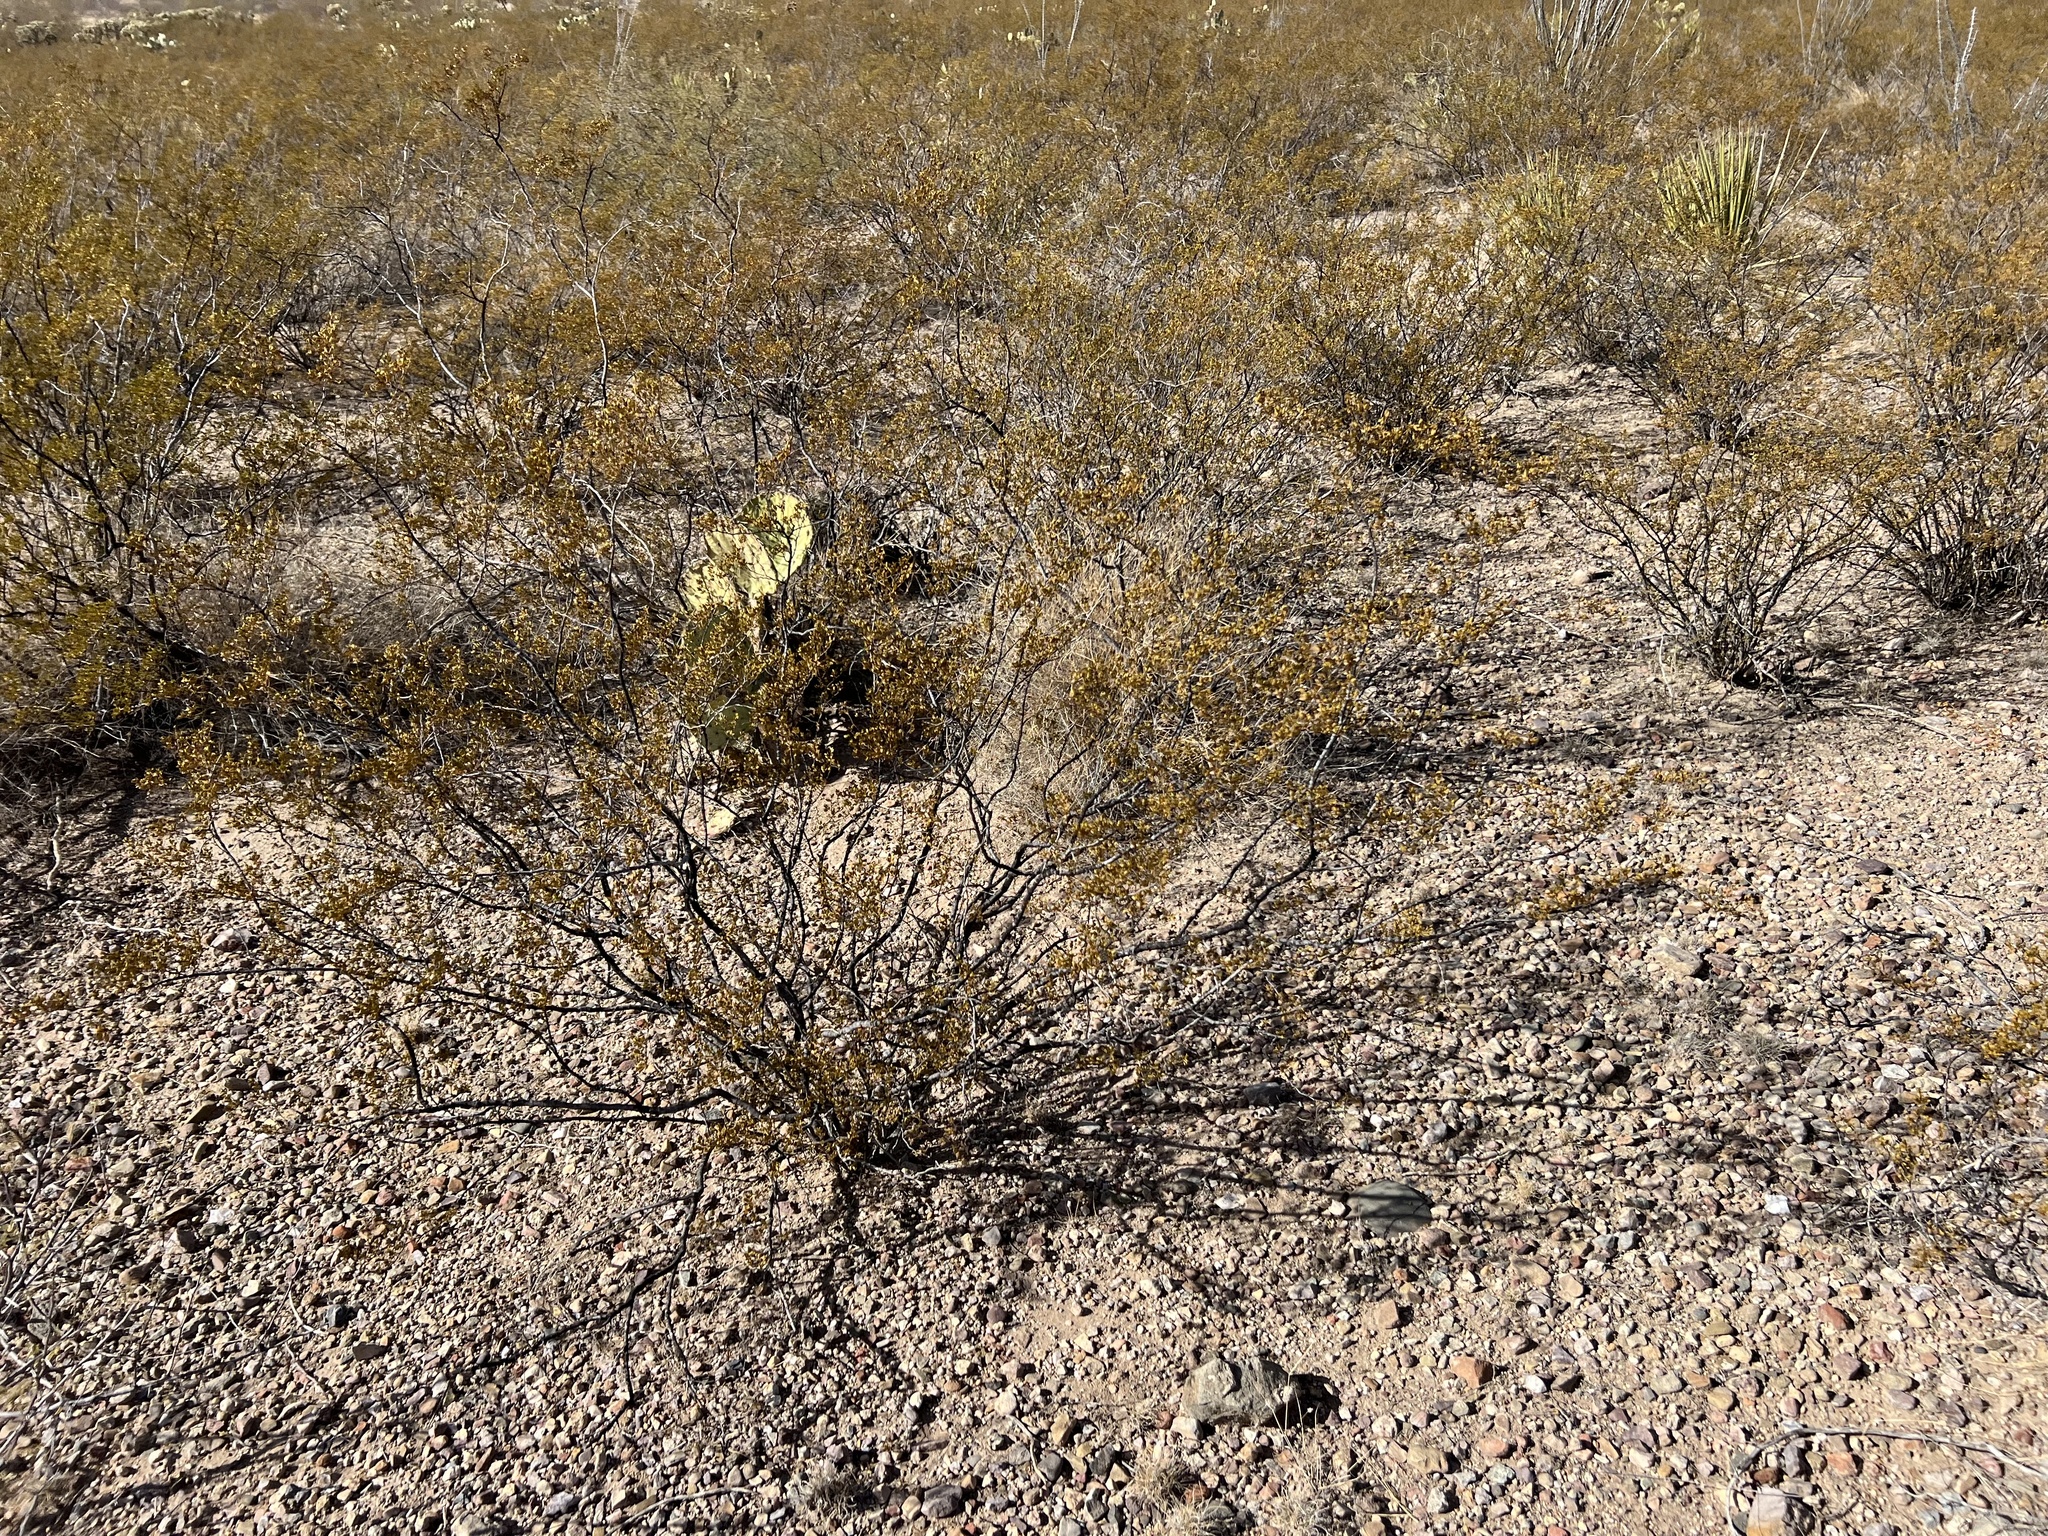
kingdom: Plantae
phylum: Tracheophyta
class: Magnoliopsida
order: Zygophyllales
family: Zygophyllaceae
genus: Larrea
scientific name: Larrea tridentata
